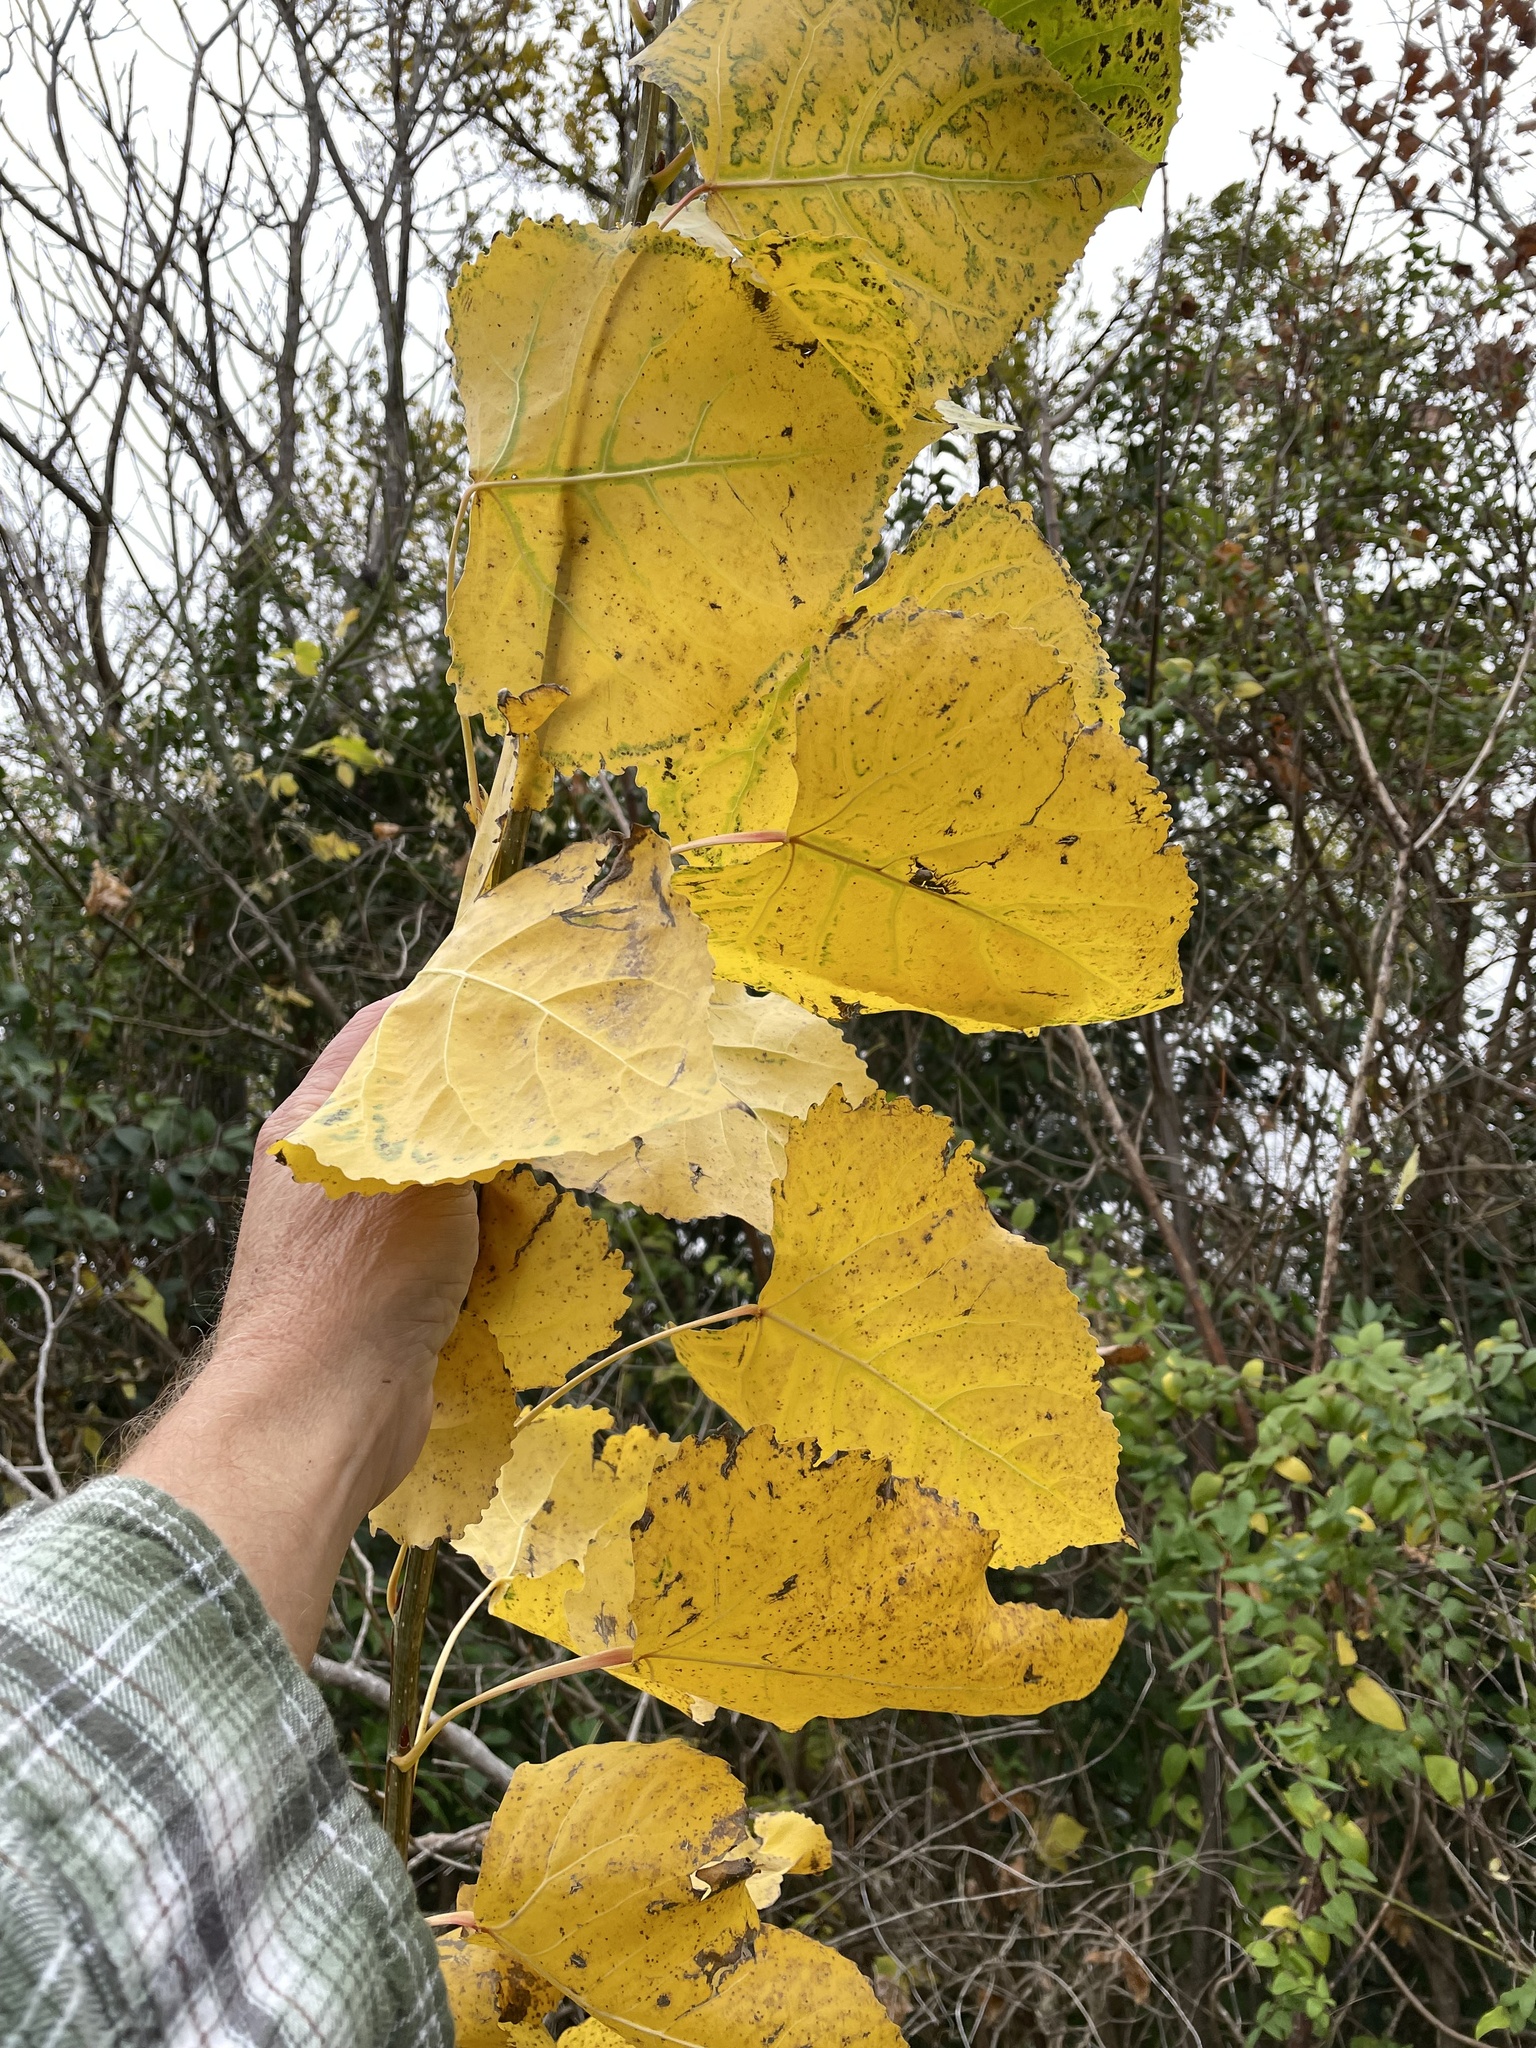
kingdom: Plantae
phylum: Tracheophyta
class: Magnoliopsida
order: Malpighiales
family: Salicaceae
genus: Populus
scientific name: Populus deltoides
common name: Eastern cottonwood
